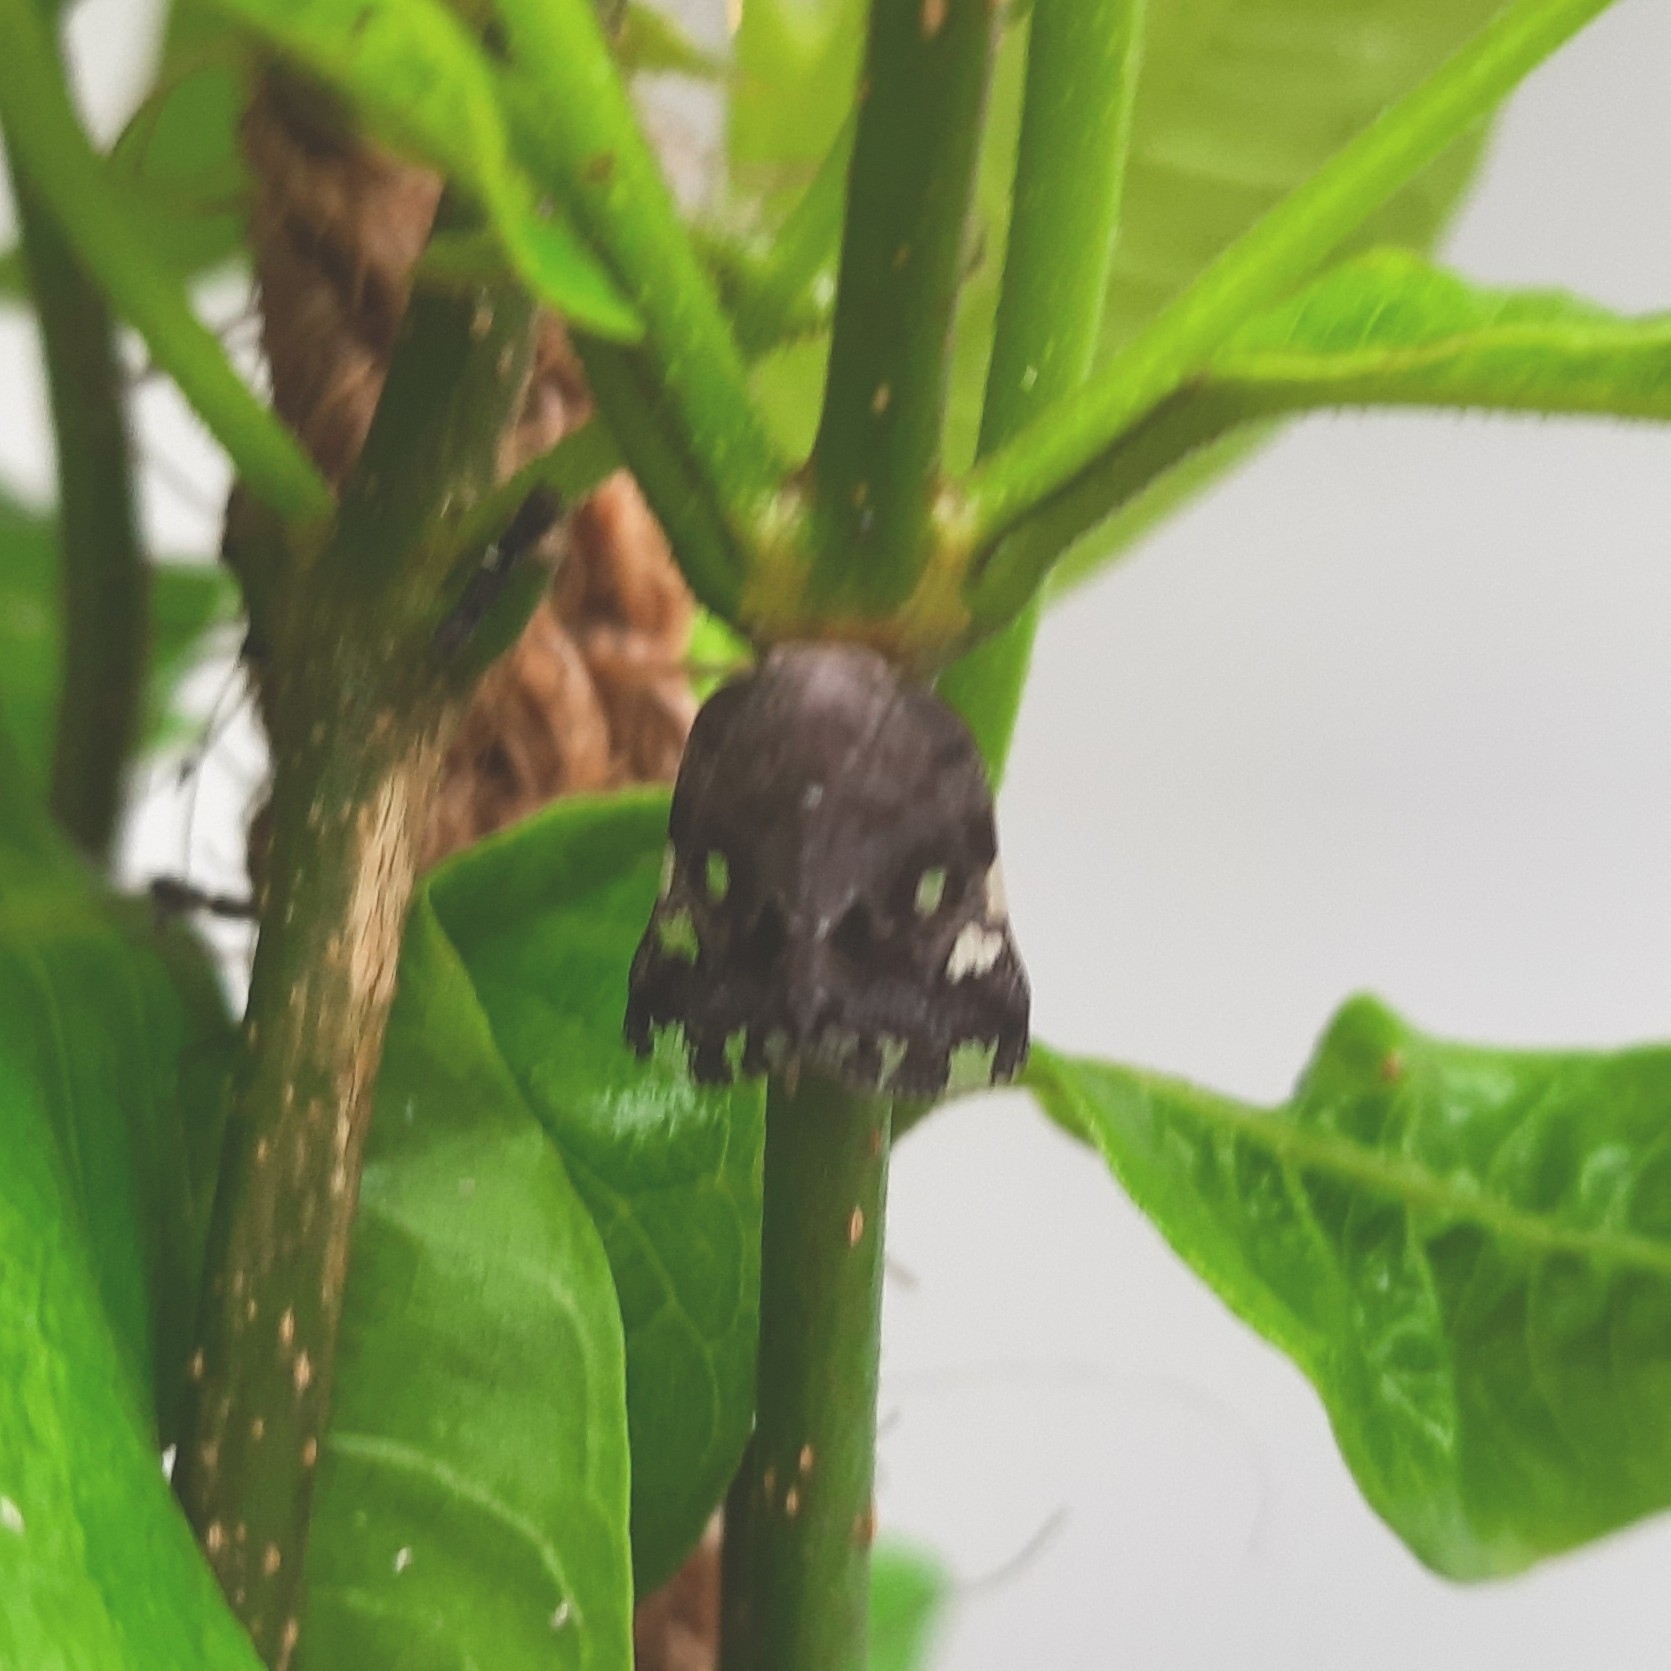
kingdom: Animalia
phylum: Arthropoda
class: Insecta
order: Hemiptera
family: Ricaniidae
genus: Ricania
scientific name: Ricania speculum
